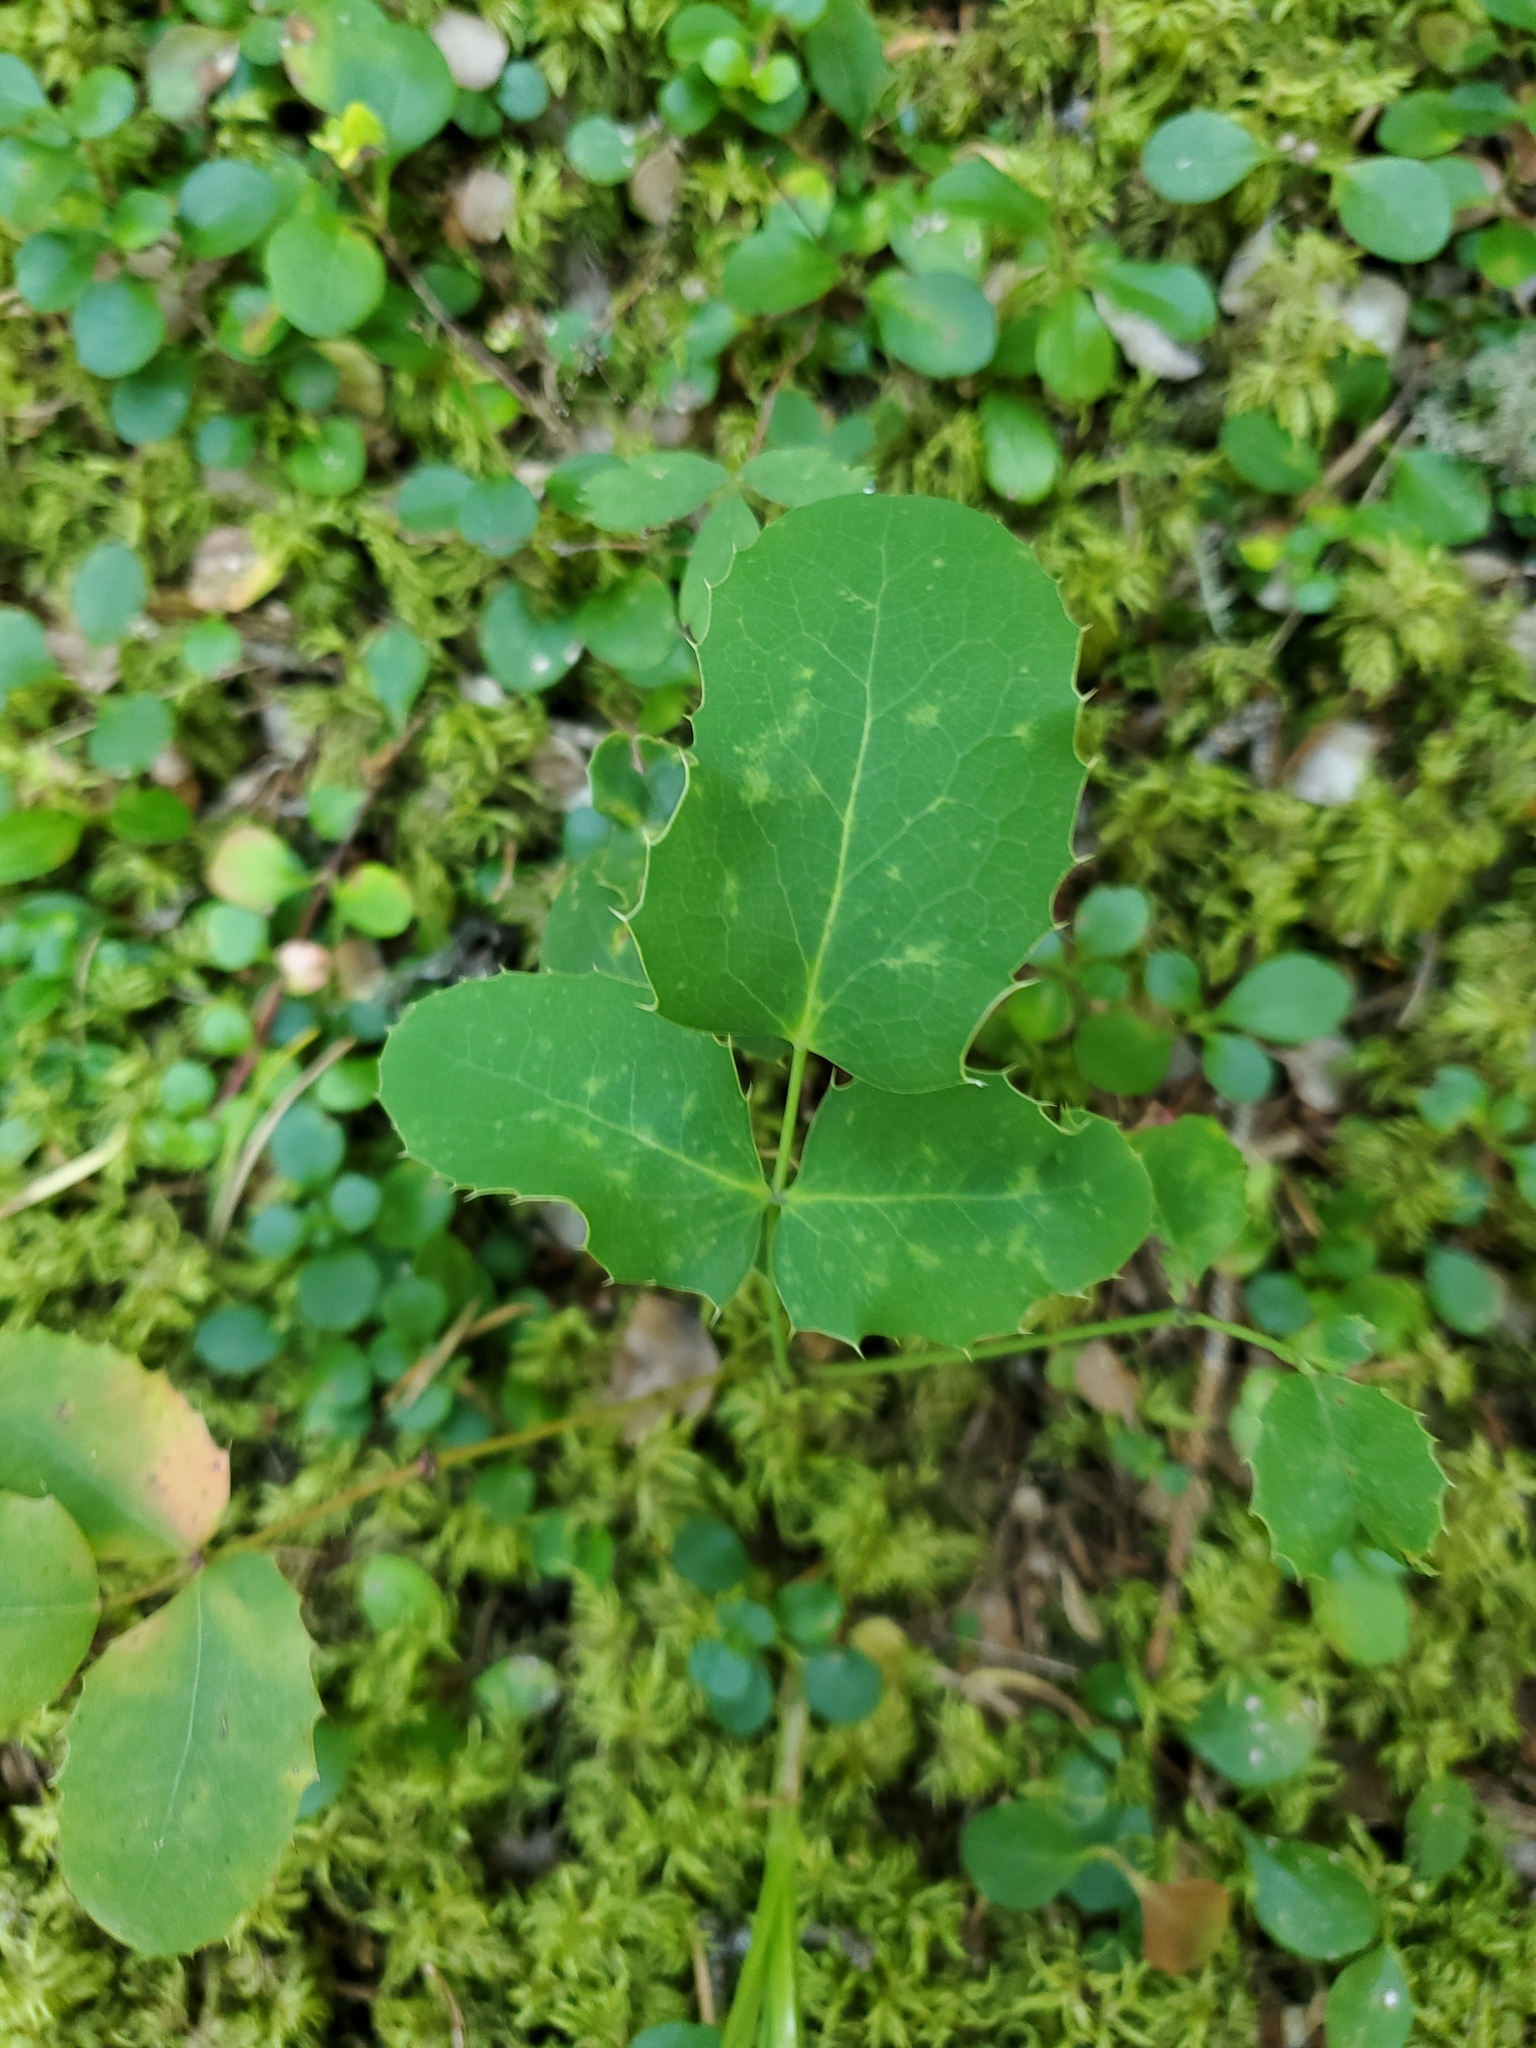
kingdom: Plantae
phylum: Tracheophyta
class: Magnoliopsida
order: Ranunculales
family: Berberidaceae
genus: Mahonia
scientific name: Mahonia repens
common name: Creeping oregon-grape
